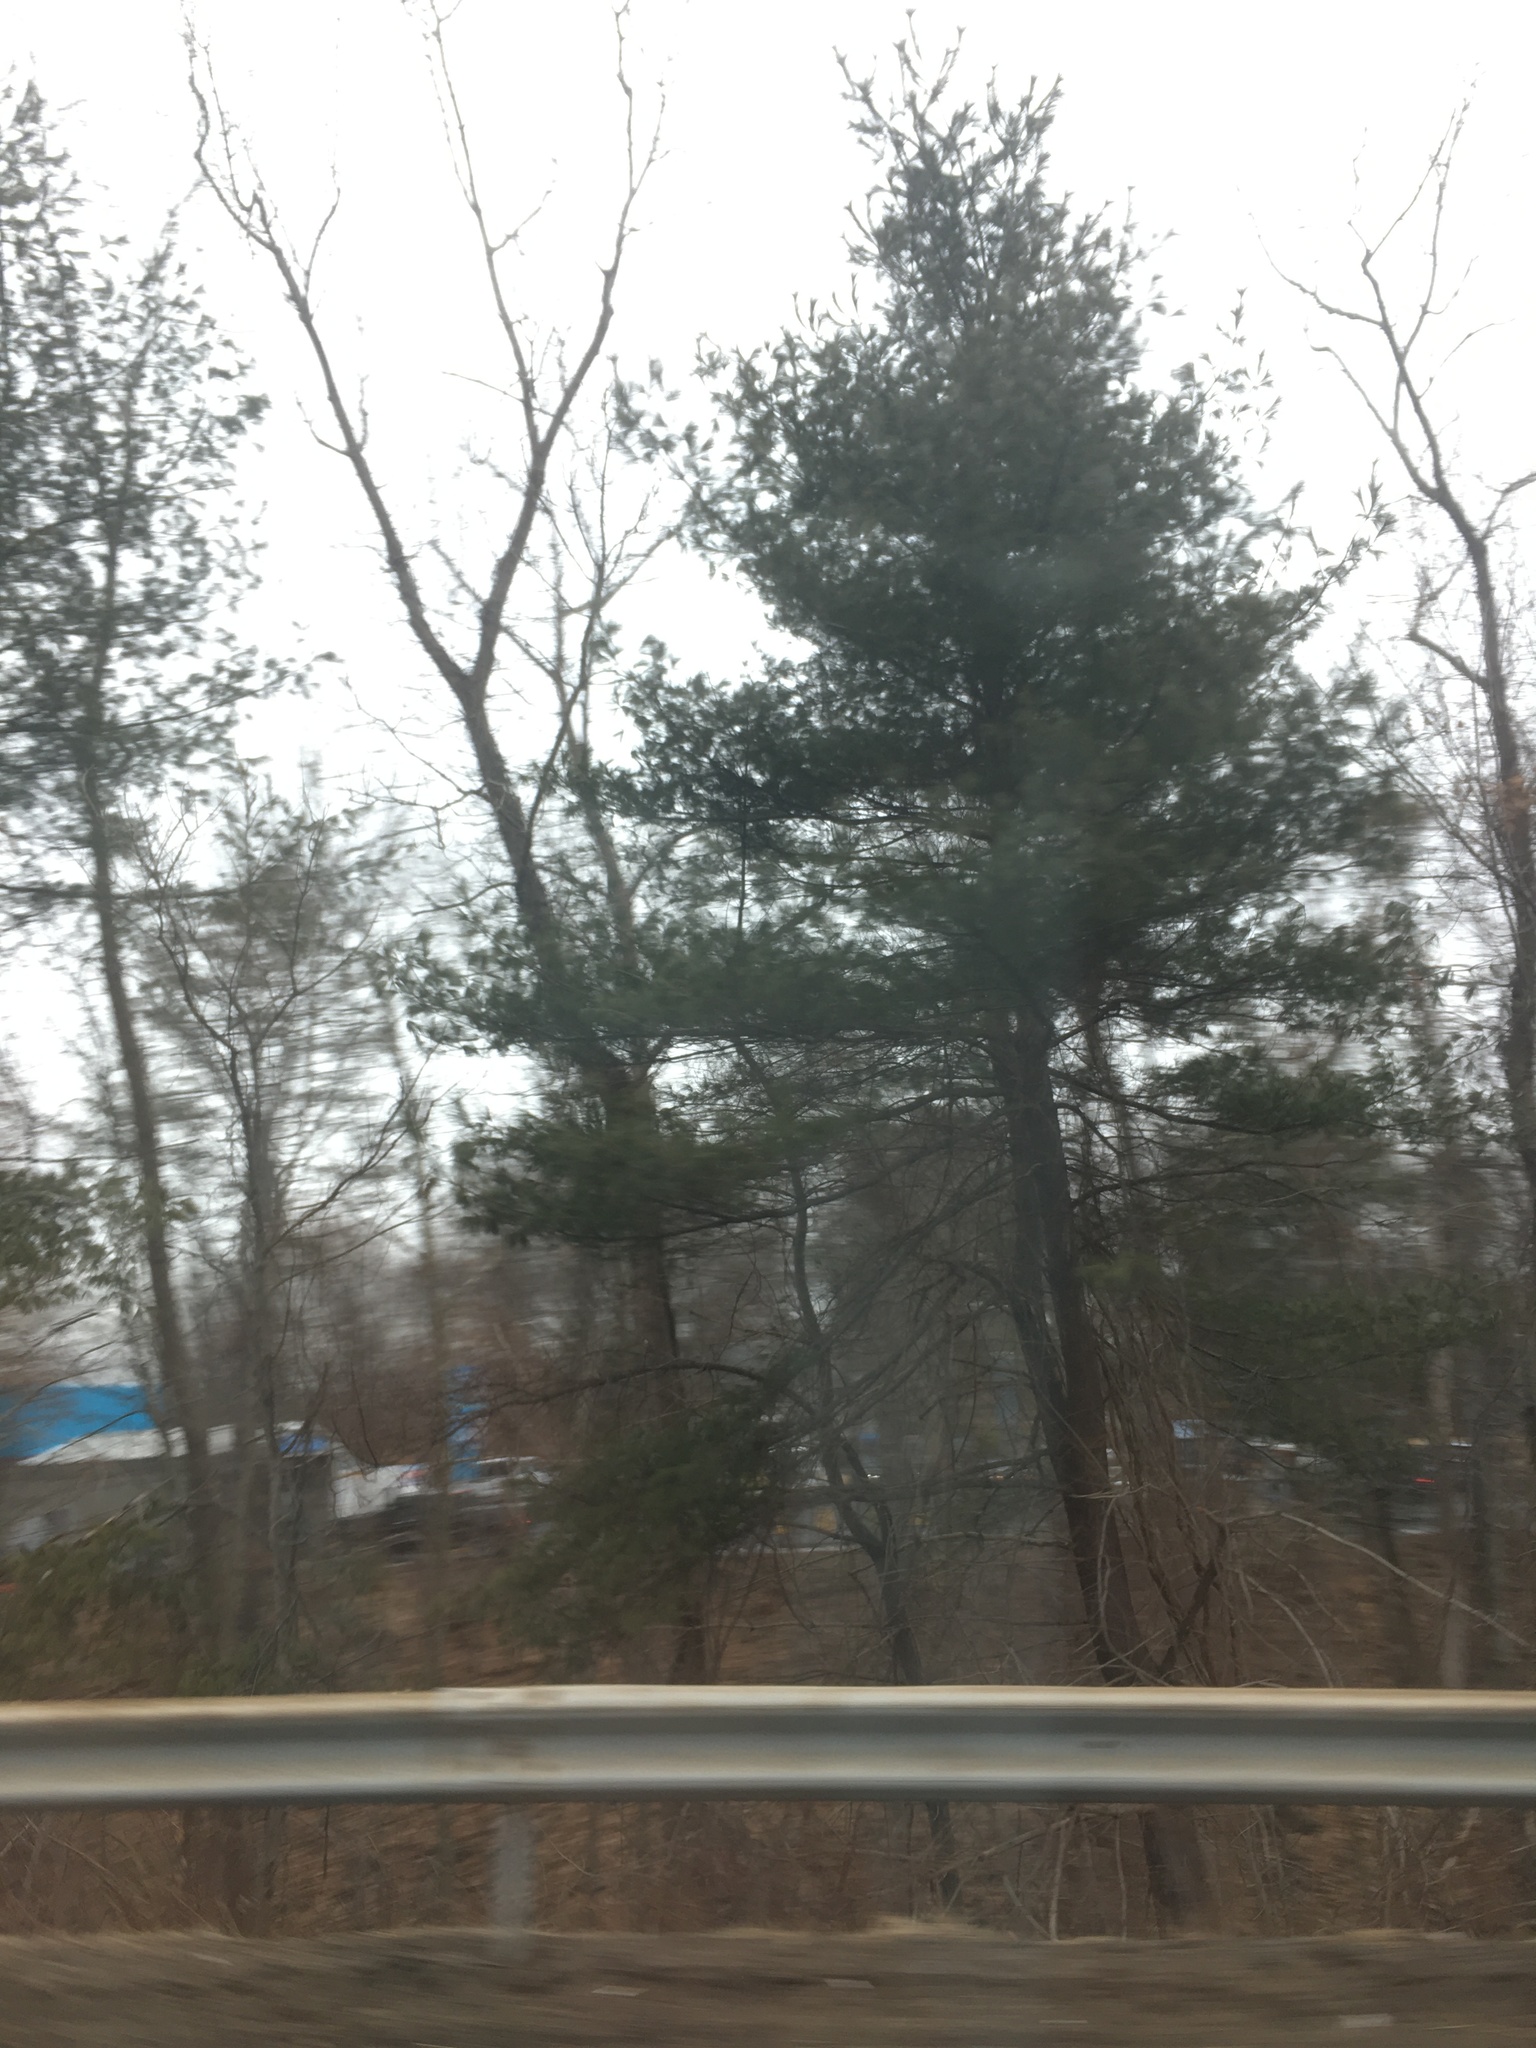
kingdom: Plantae
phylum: Tracheophyta
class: Pinopsida
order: Pinales
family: Pinaceae
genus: Pinus
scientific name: Pinus strobus
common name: Weymouth pine
